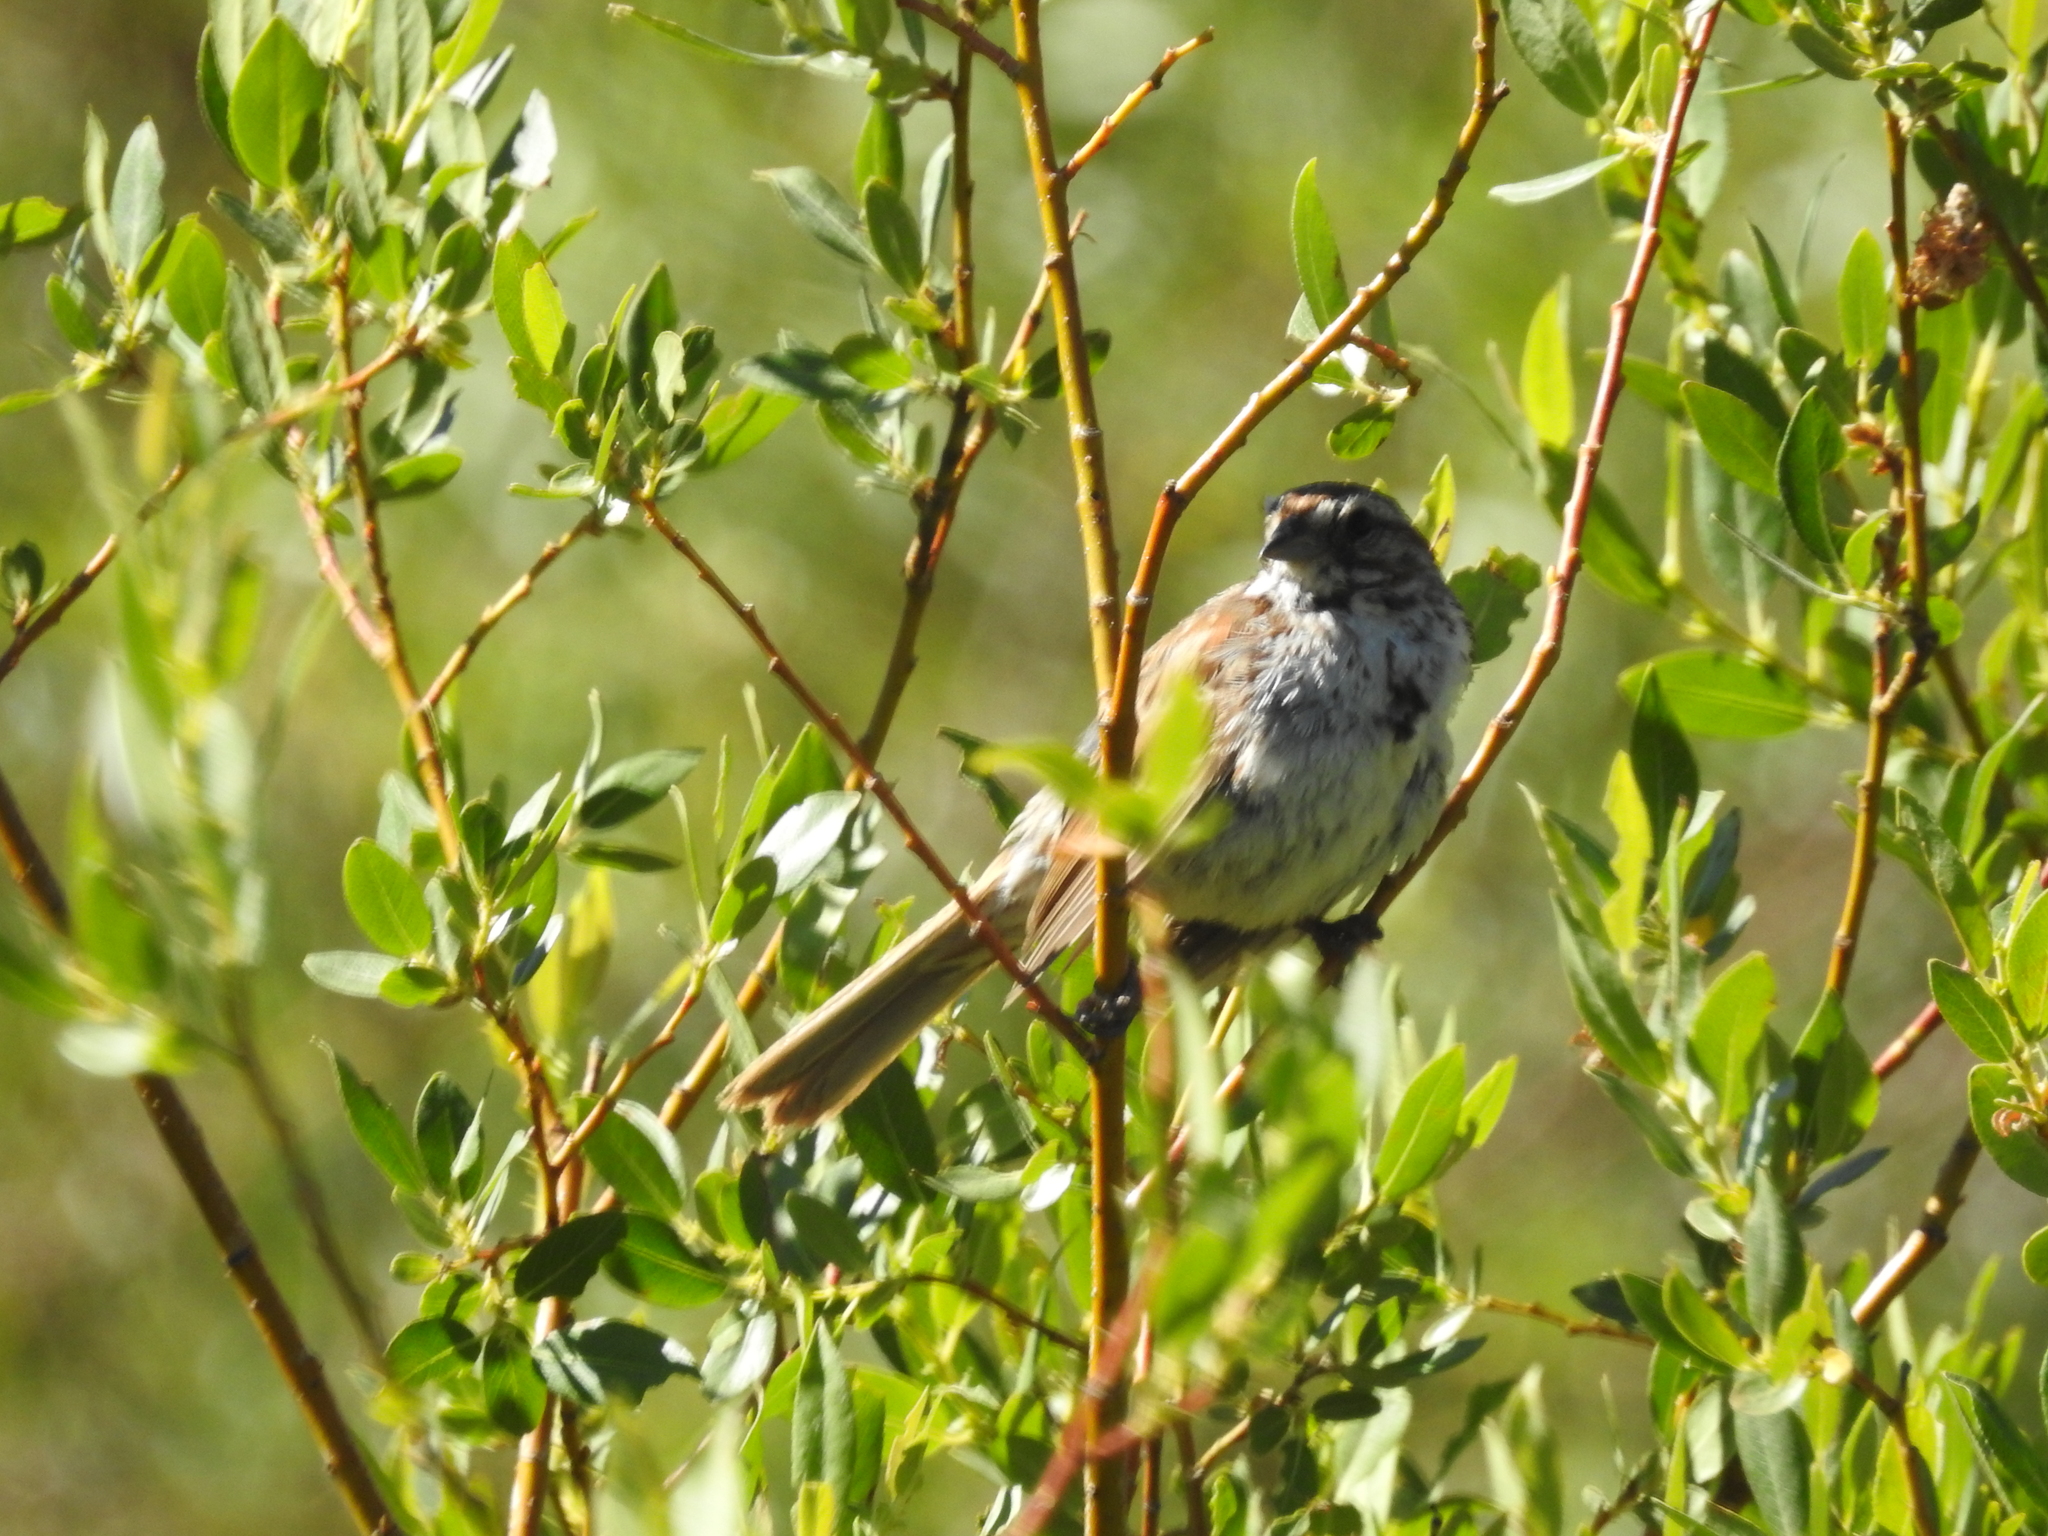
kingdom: Animalia
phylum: Chordata
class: Aves
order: Passeriformes
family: Passerellidae
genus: Melospiza
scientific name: Melospiza melodia
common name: Song sparrow
